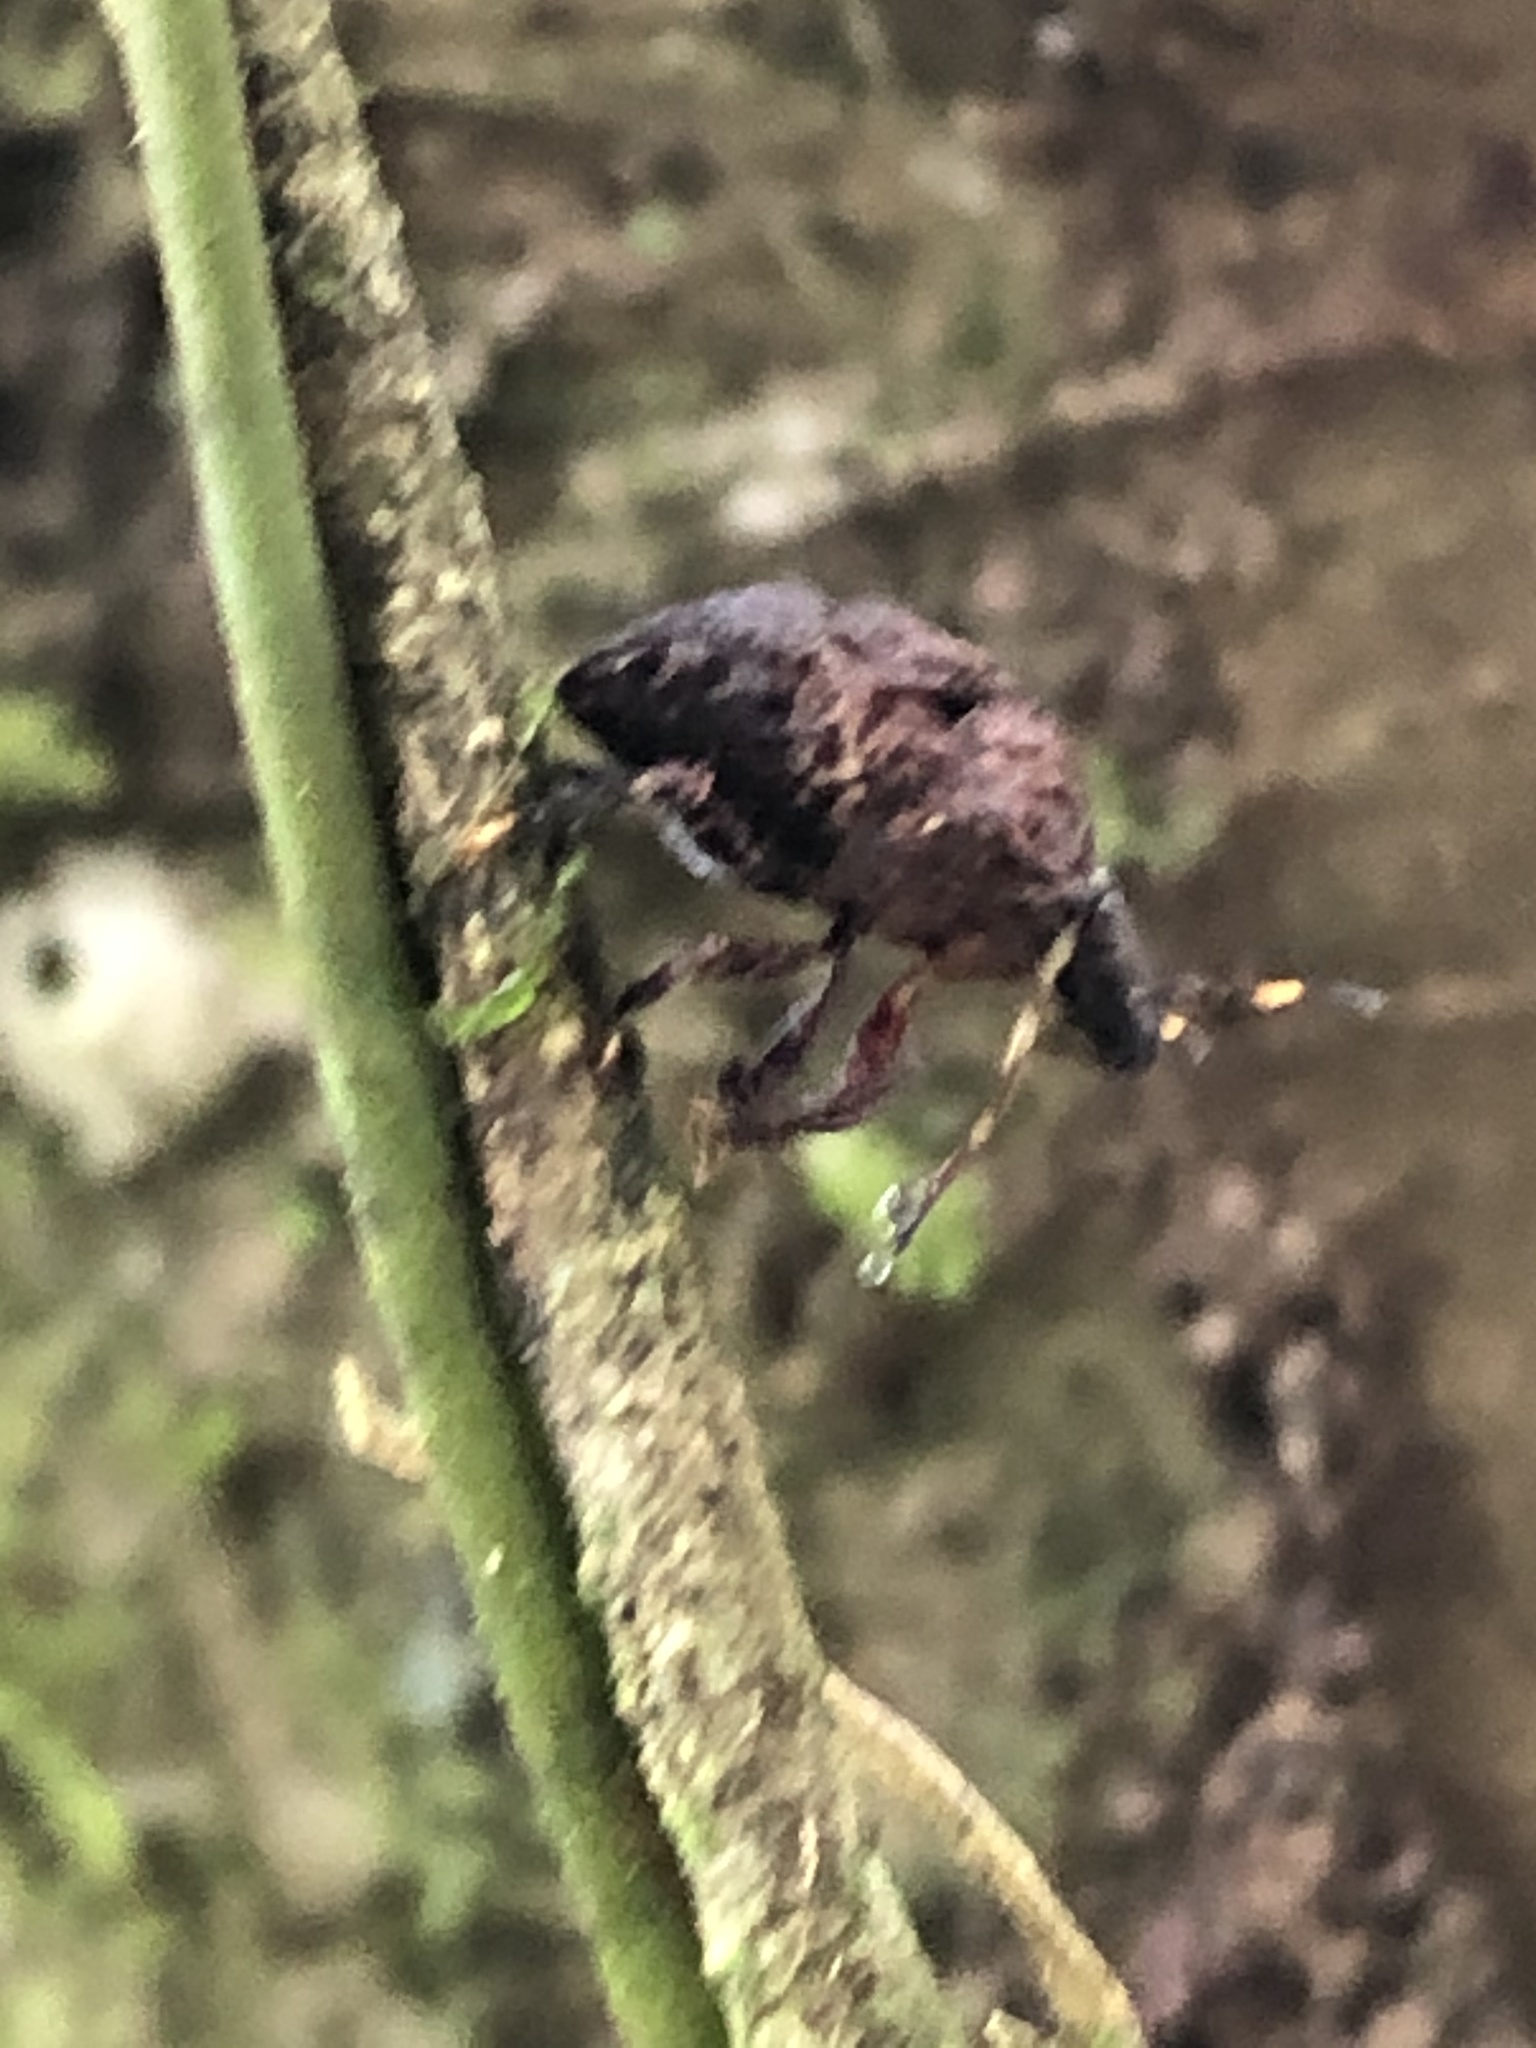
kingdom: Animalia
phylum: Arthropoda
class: Insecta
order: Hemiptera
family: Scutelleridae
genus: Crathis
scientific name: Crathis longifrons
